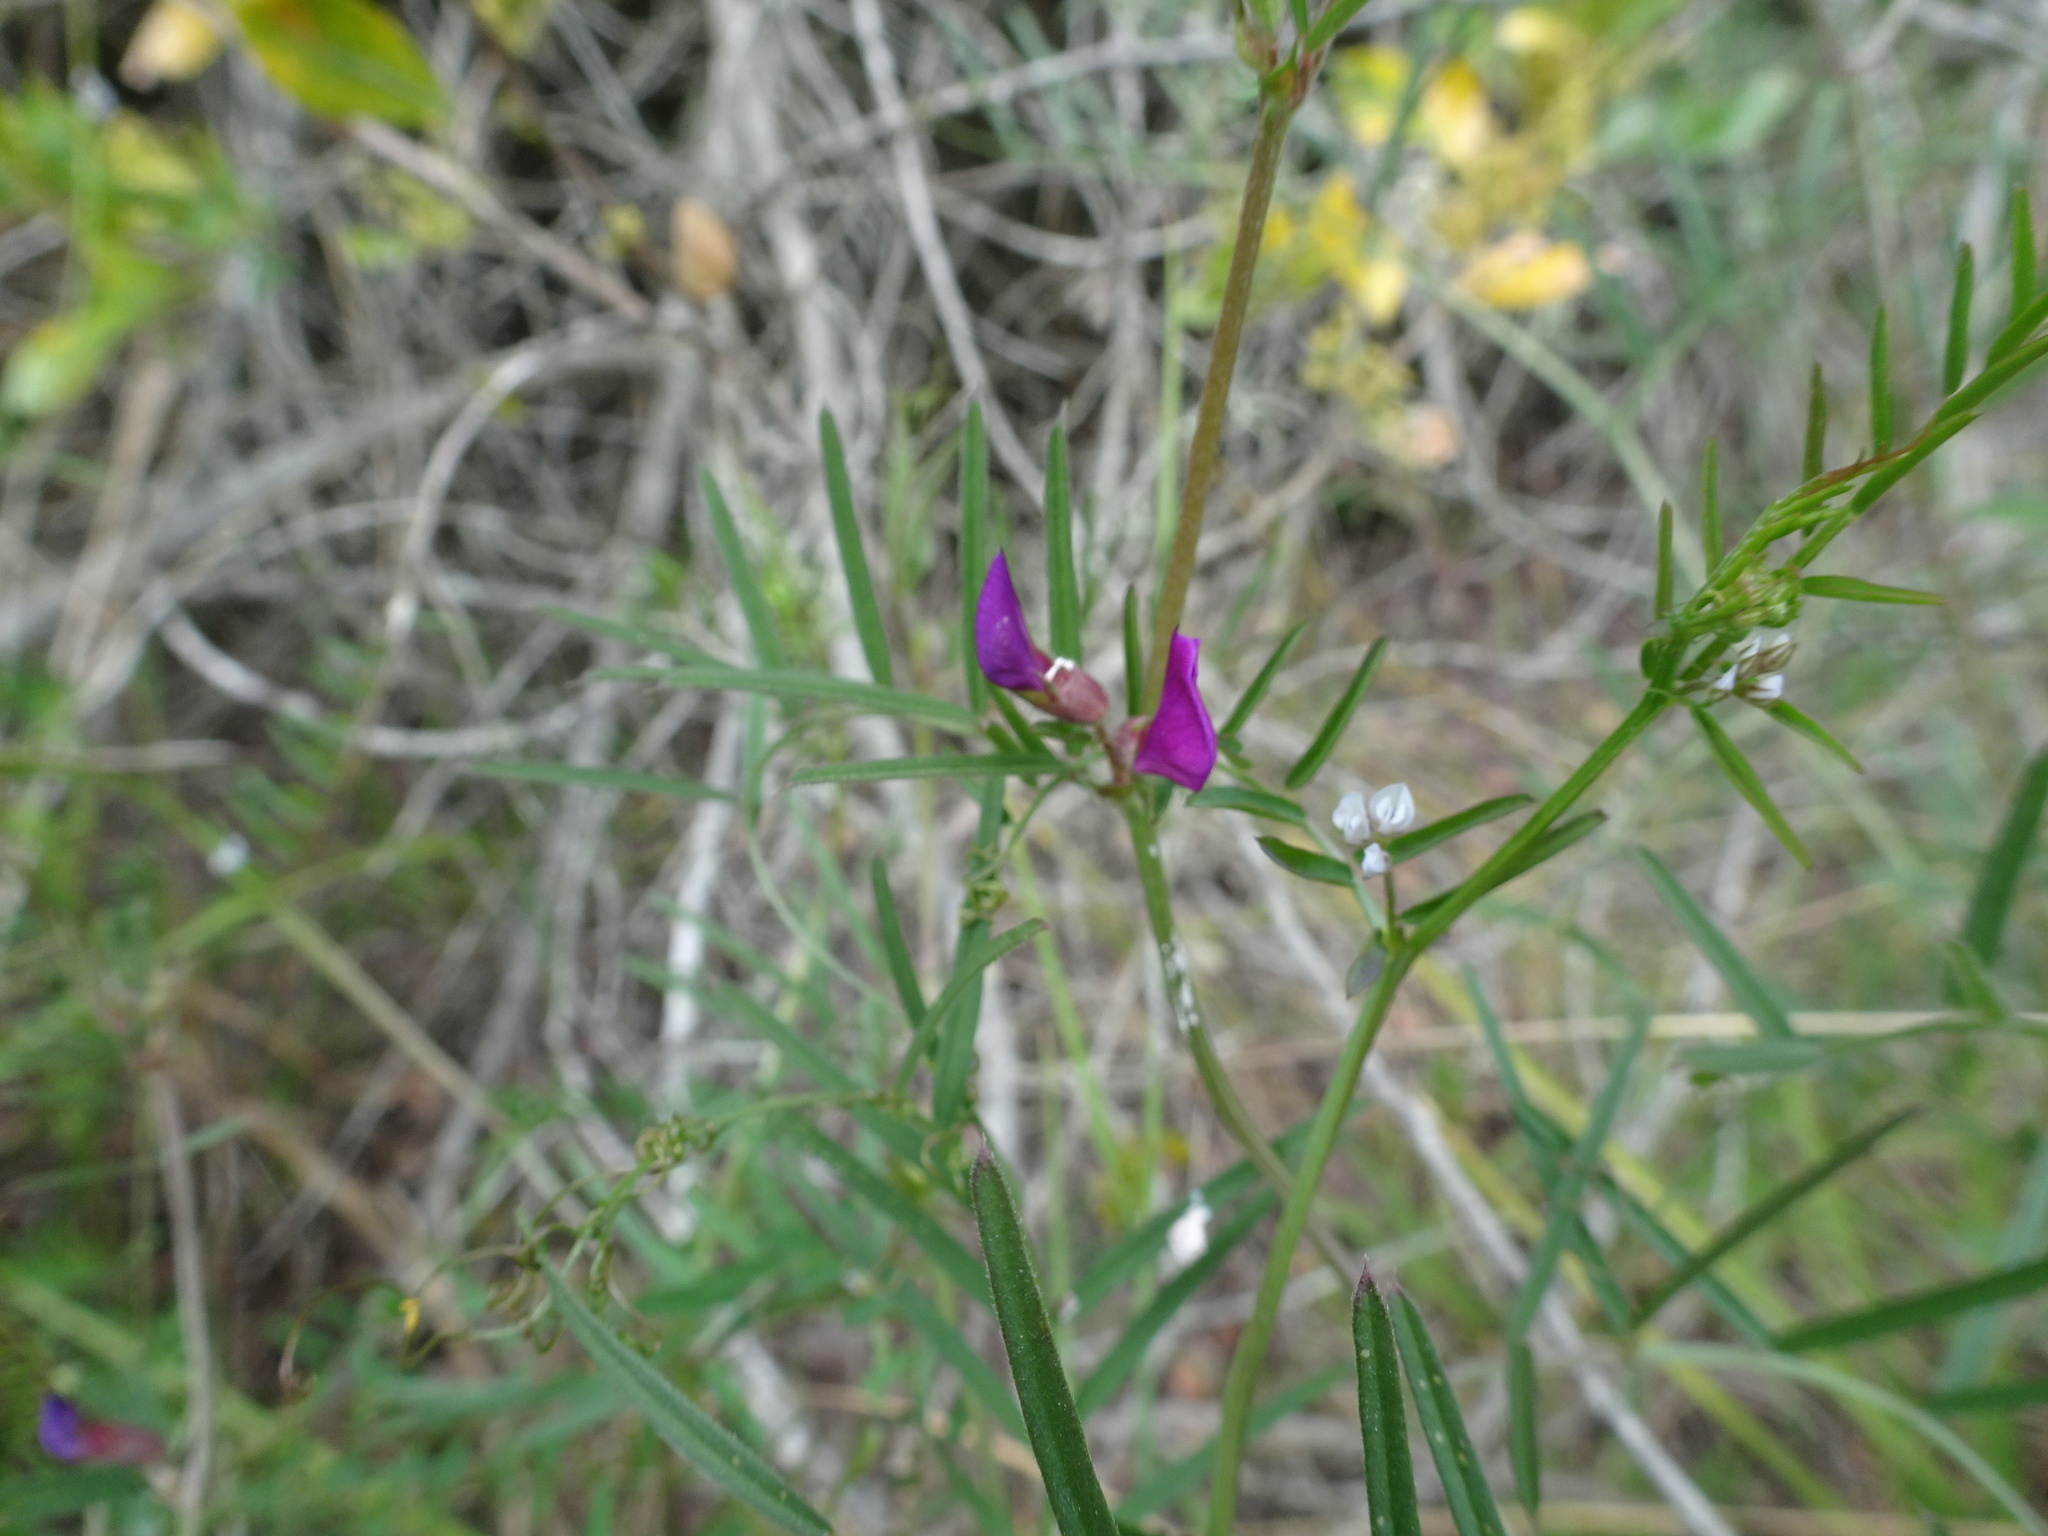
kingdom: Plantae
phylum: Tracheophyta
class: Magnoliopsida
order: Fabales
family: Fabaceae
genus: Vicia
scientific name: Vicia sativa
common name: Garden vetch
